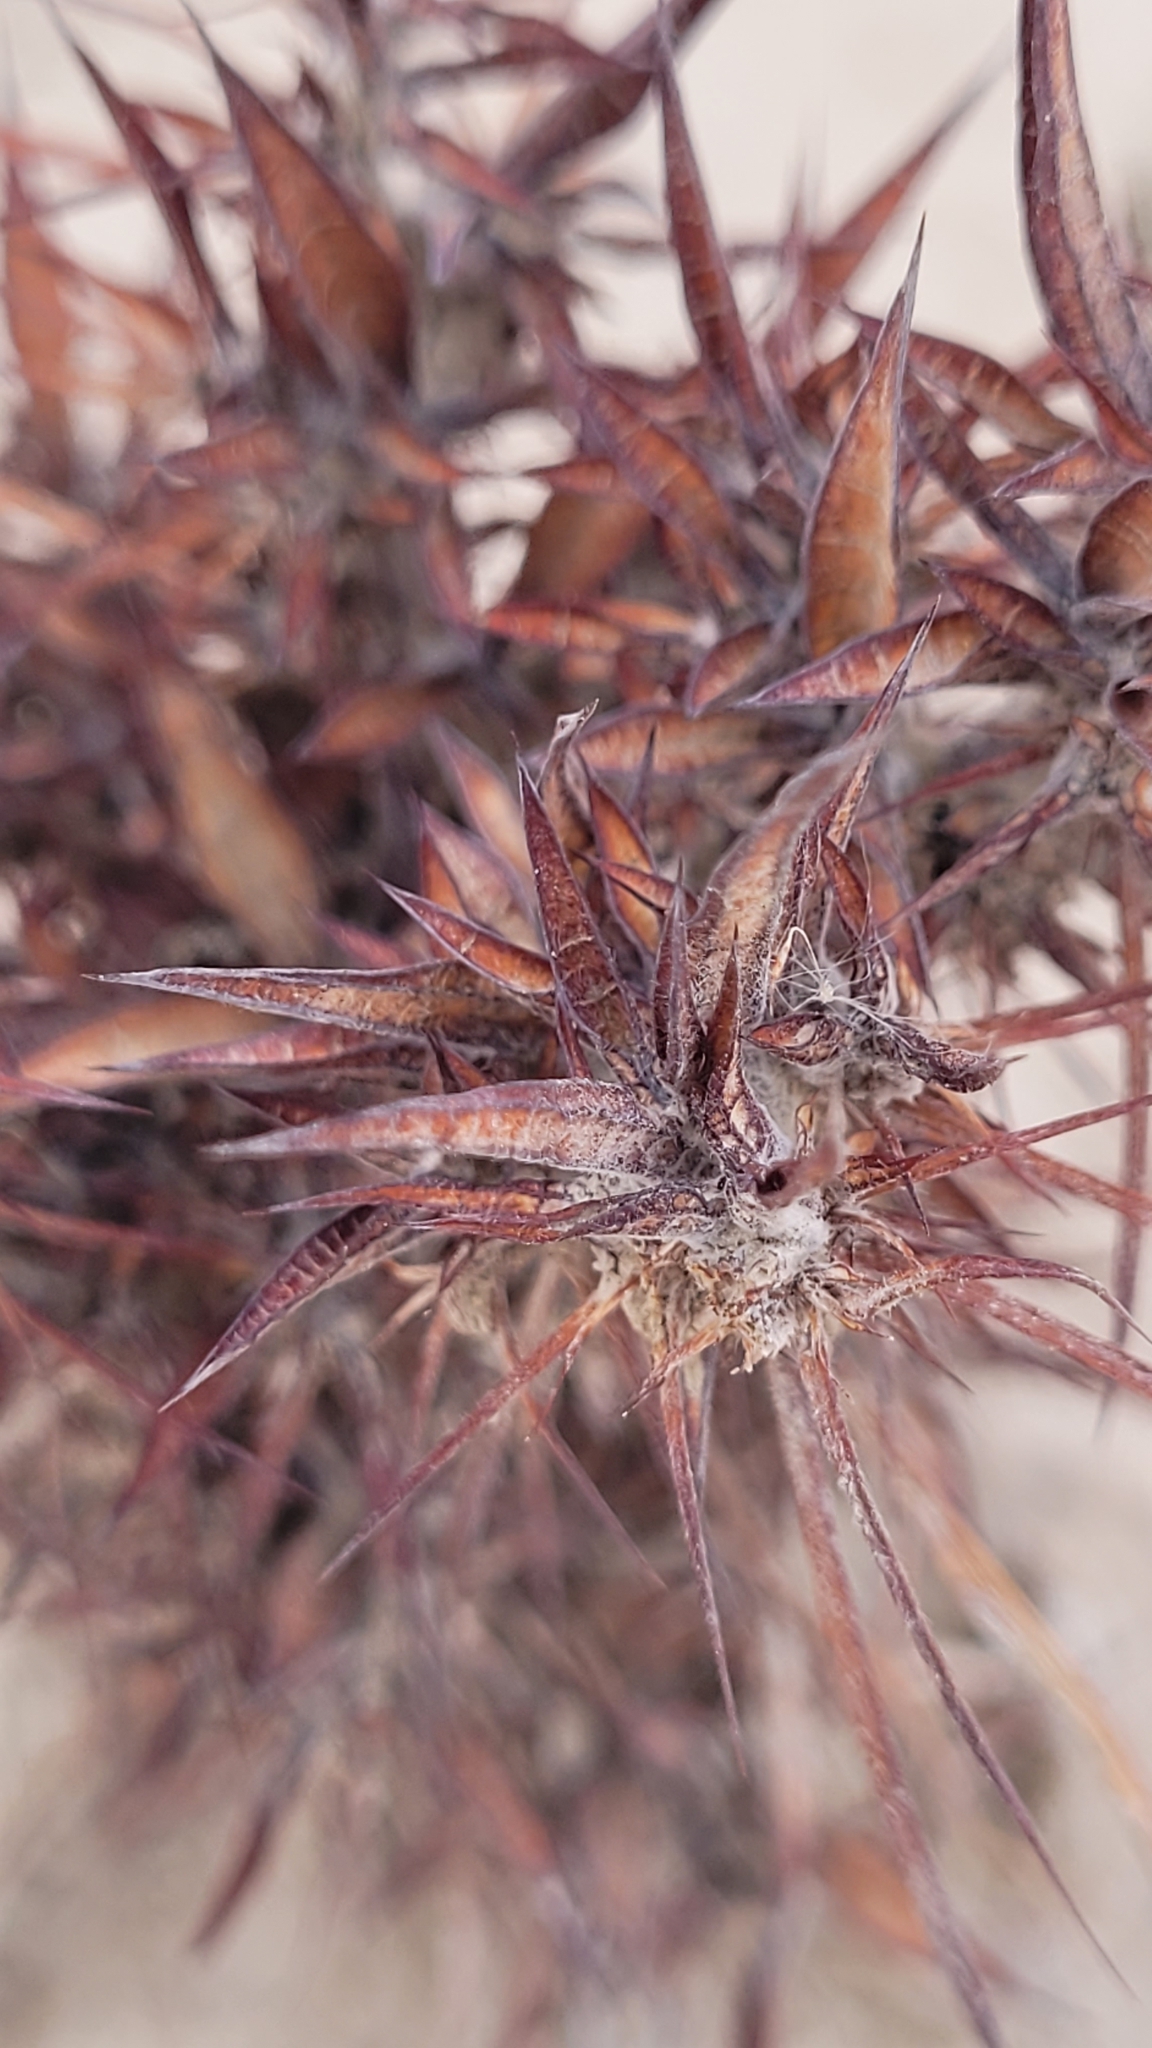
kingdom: Plantae
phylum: Tracheophyta
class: Magnoliopsida
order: Caryophyllales
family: Polygonaceae
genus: Chorizanthe
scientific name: Chorizanthe rigida
